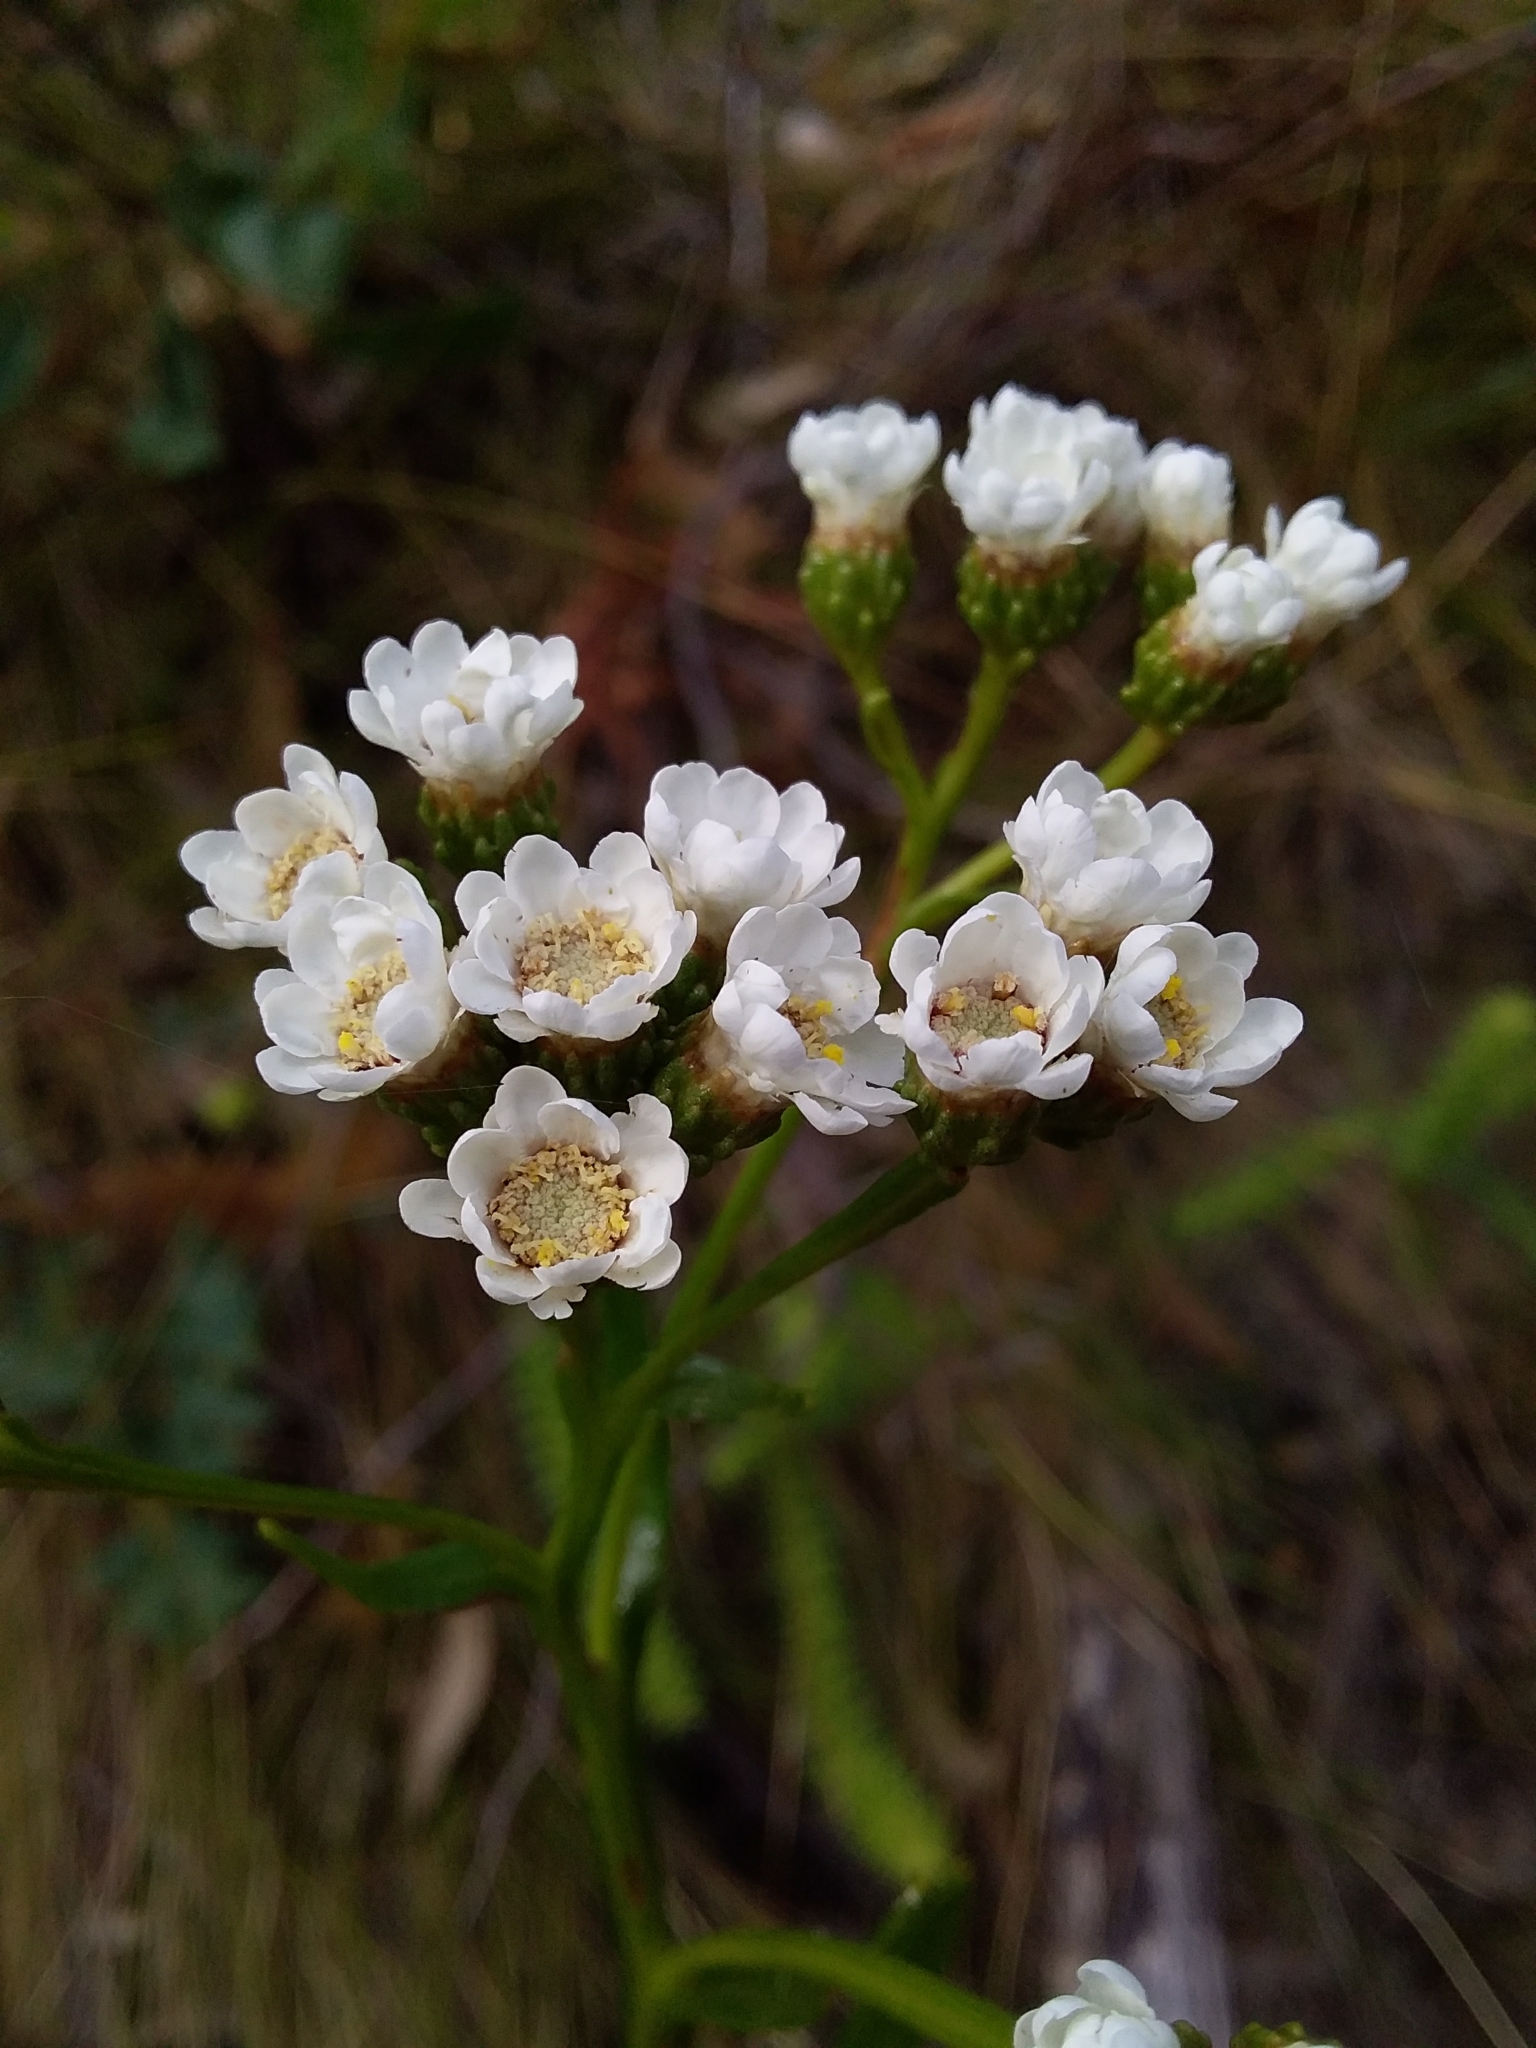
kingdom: Plantae
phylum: Tracheophyta
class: Magnoliopsida
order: Asterales
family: Asteraceae
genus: Ixodia
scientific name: Ixodia achillaeoides
